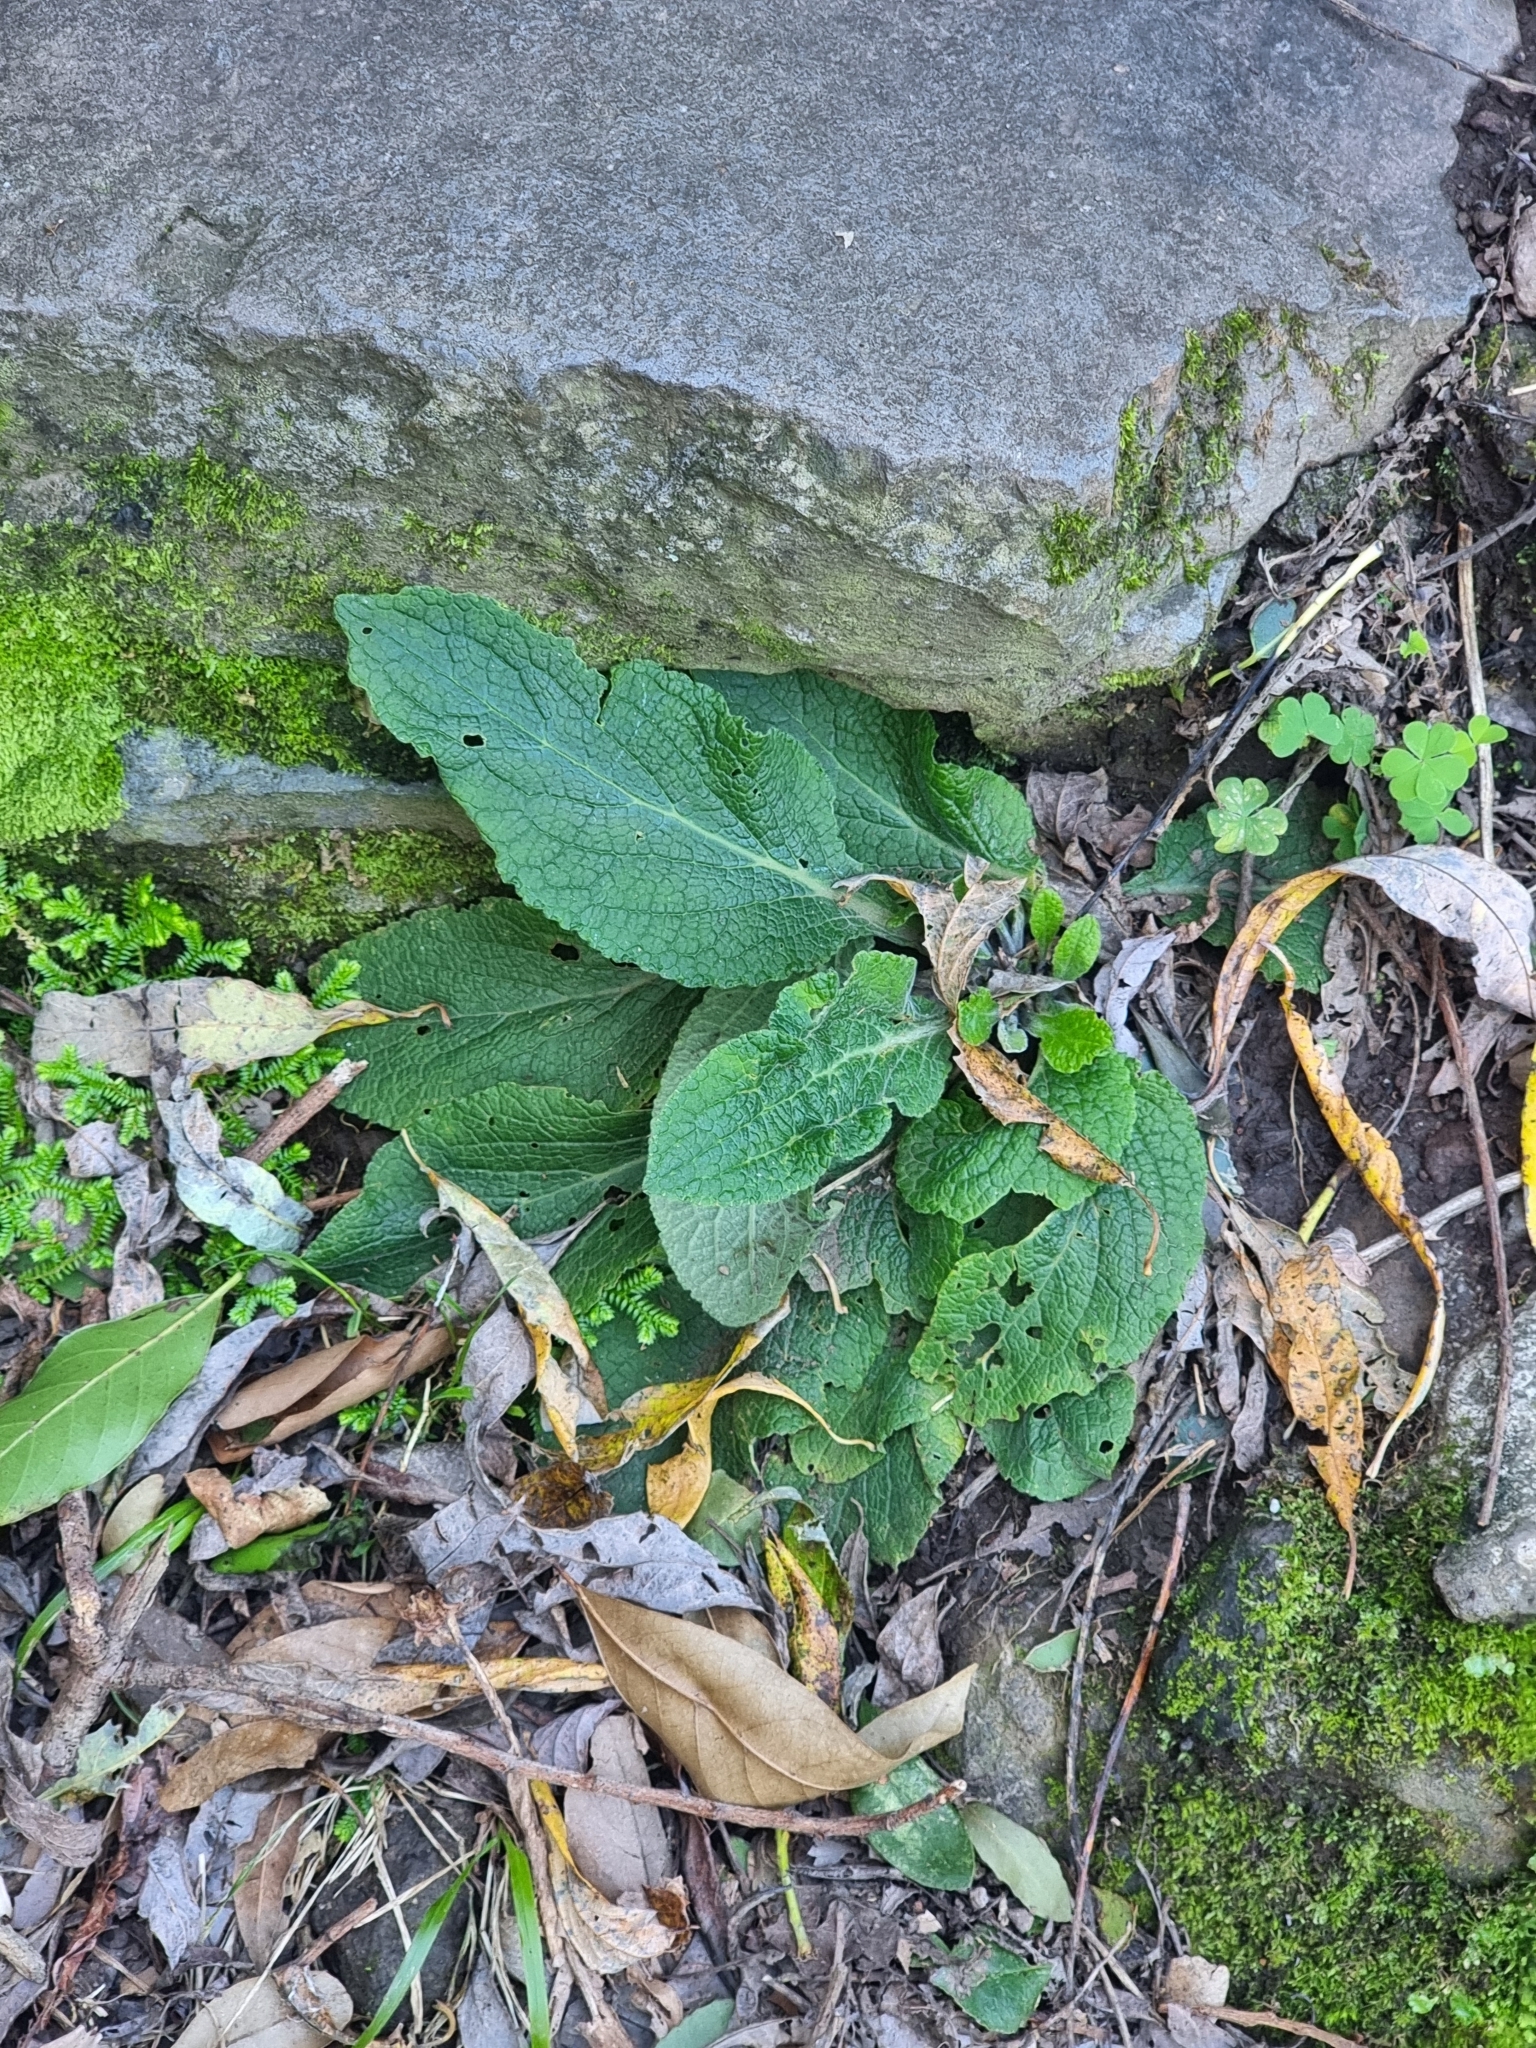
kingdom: Plantae
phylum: Tracheophyta
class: Magnoliopsida
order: Lamiales
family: Plantaginaceae
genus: Digitalis
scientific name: Digitalis purpurea
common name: Foxglove
